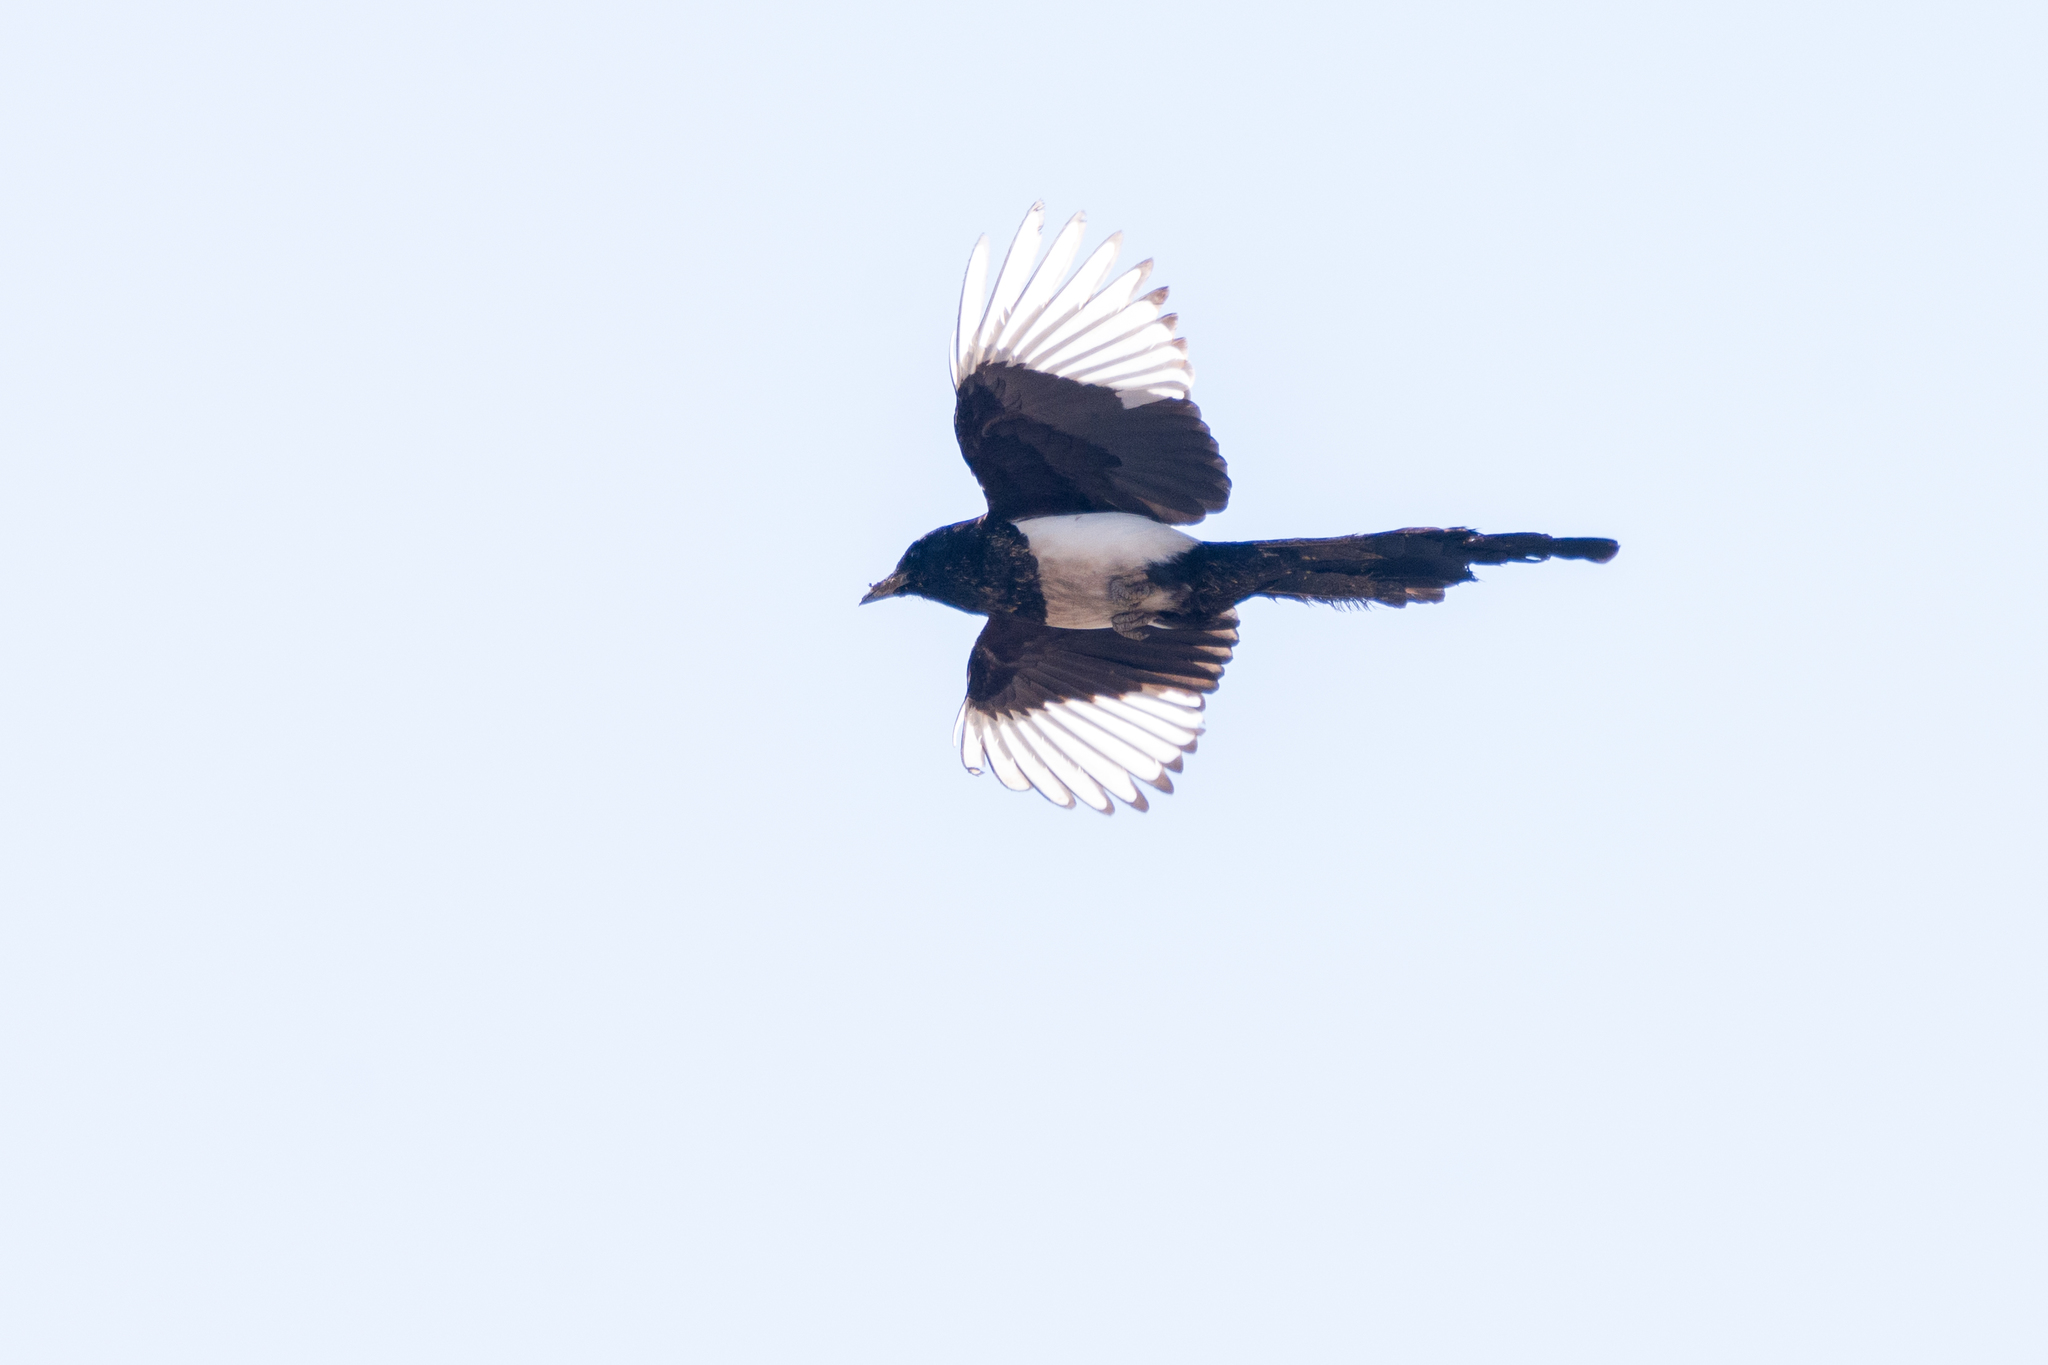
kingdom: Animalia
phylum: Chordata
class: Aves
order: Passeriformes
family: Corvidae
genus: Pica
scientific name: Pica pica
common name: Eurasian magpie
